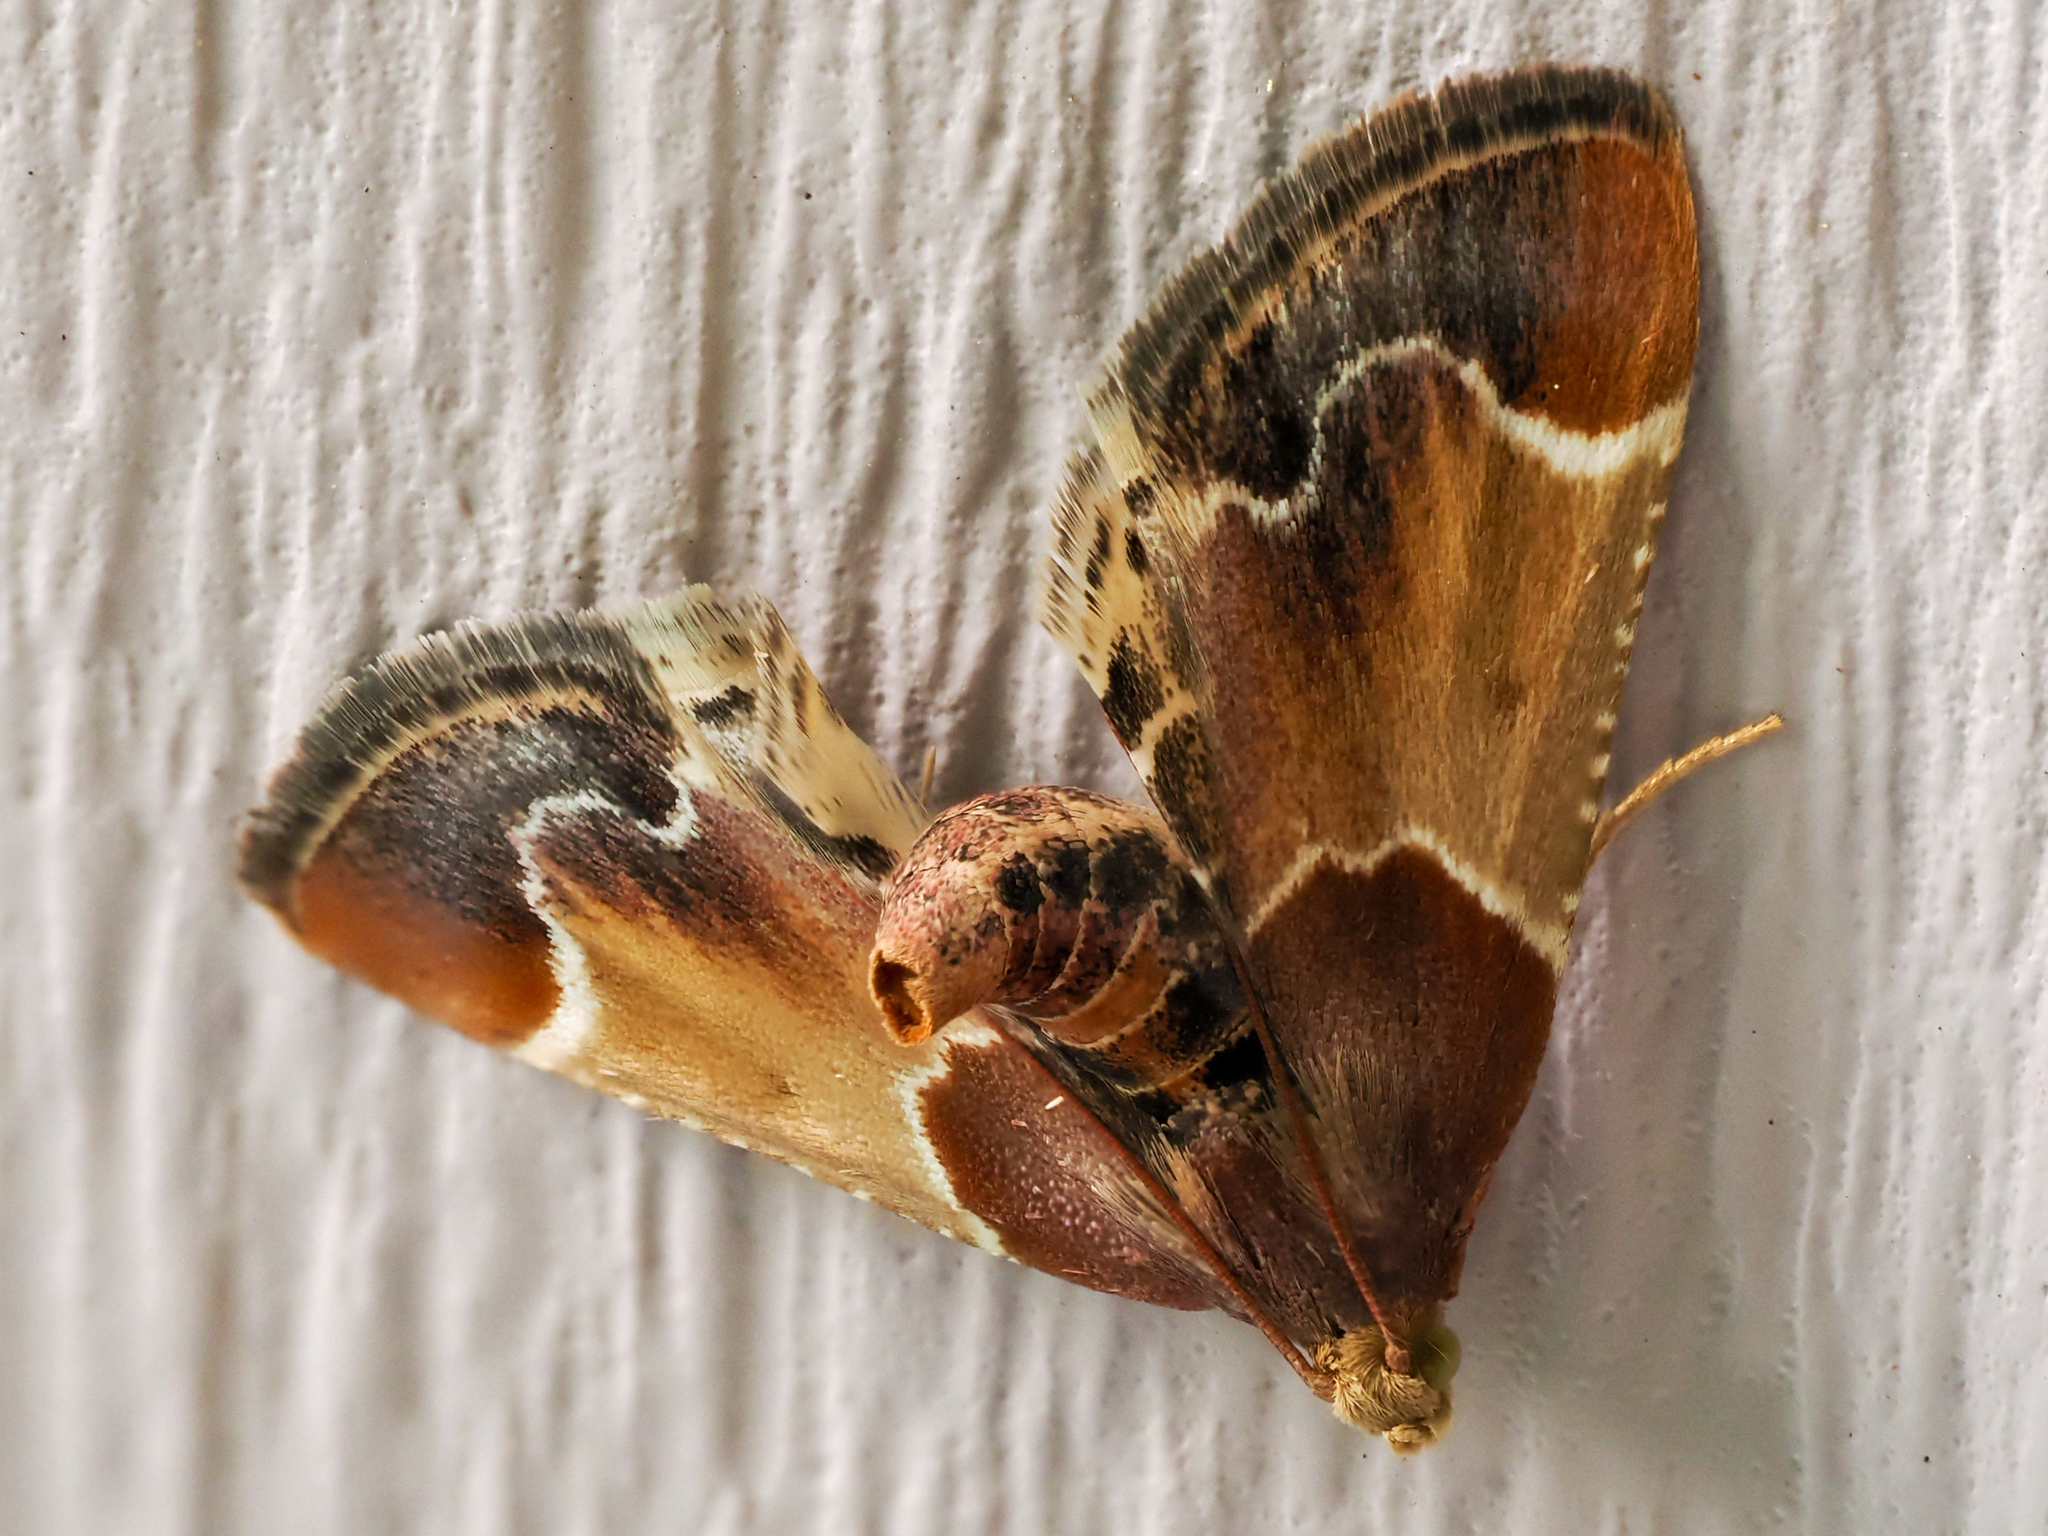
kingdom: Animalia
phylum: Arthropoda
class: Insecta
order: Lepidoptera
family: Pyralidae
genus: Pyralis
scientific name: Pyralis farinalis
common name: Meal moth
